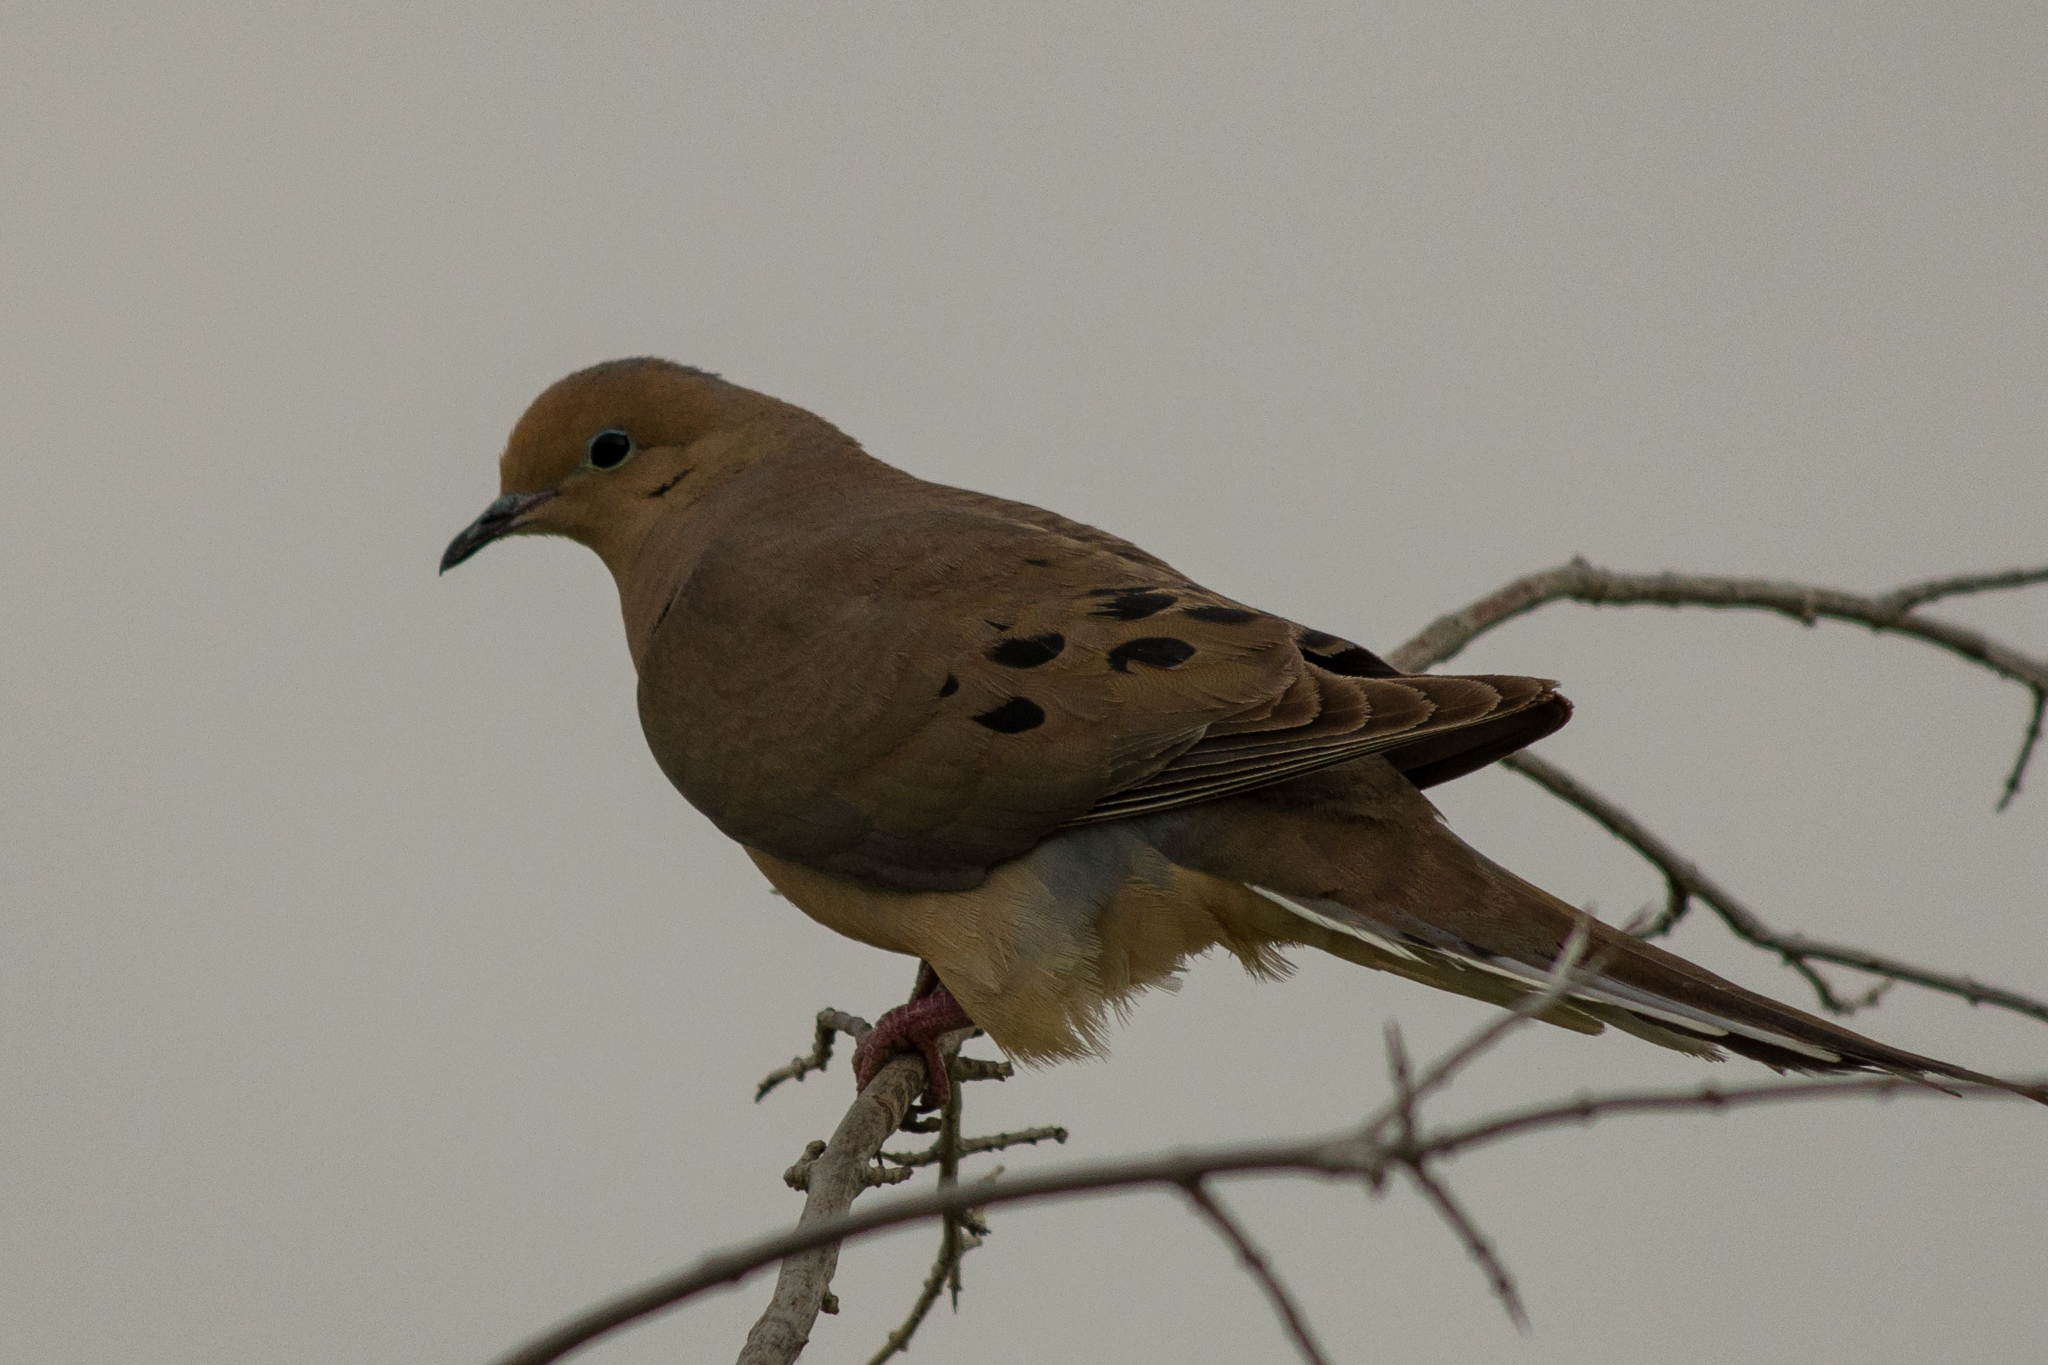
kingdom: Animalia
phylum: Chordata
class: Aves
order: Columbiformes
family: Columbidae
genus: Zenaida
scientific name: Zenaida macroura
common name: Mourning dove
